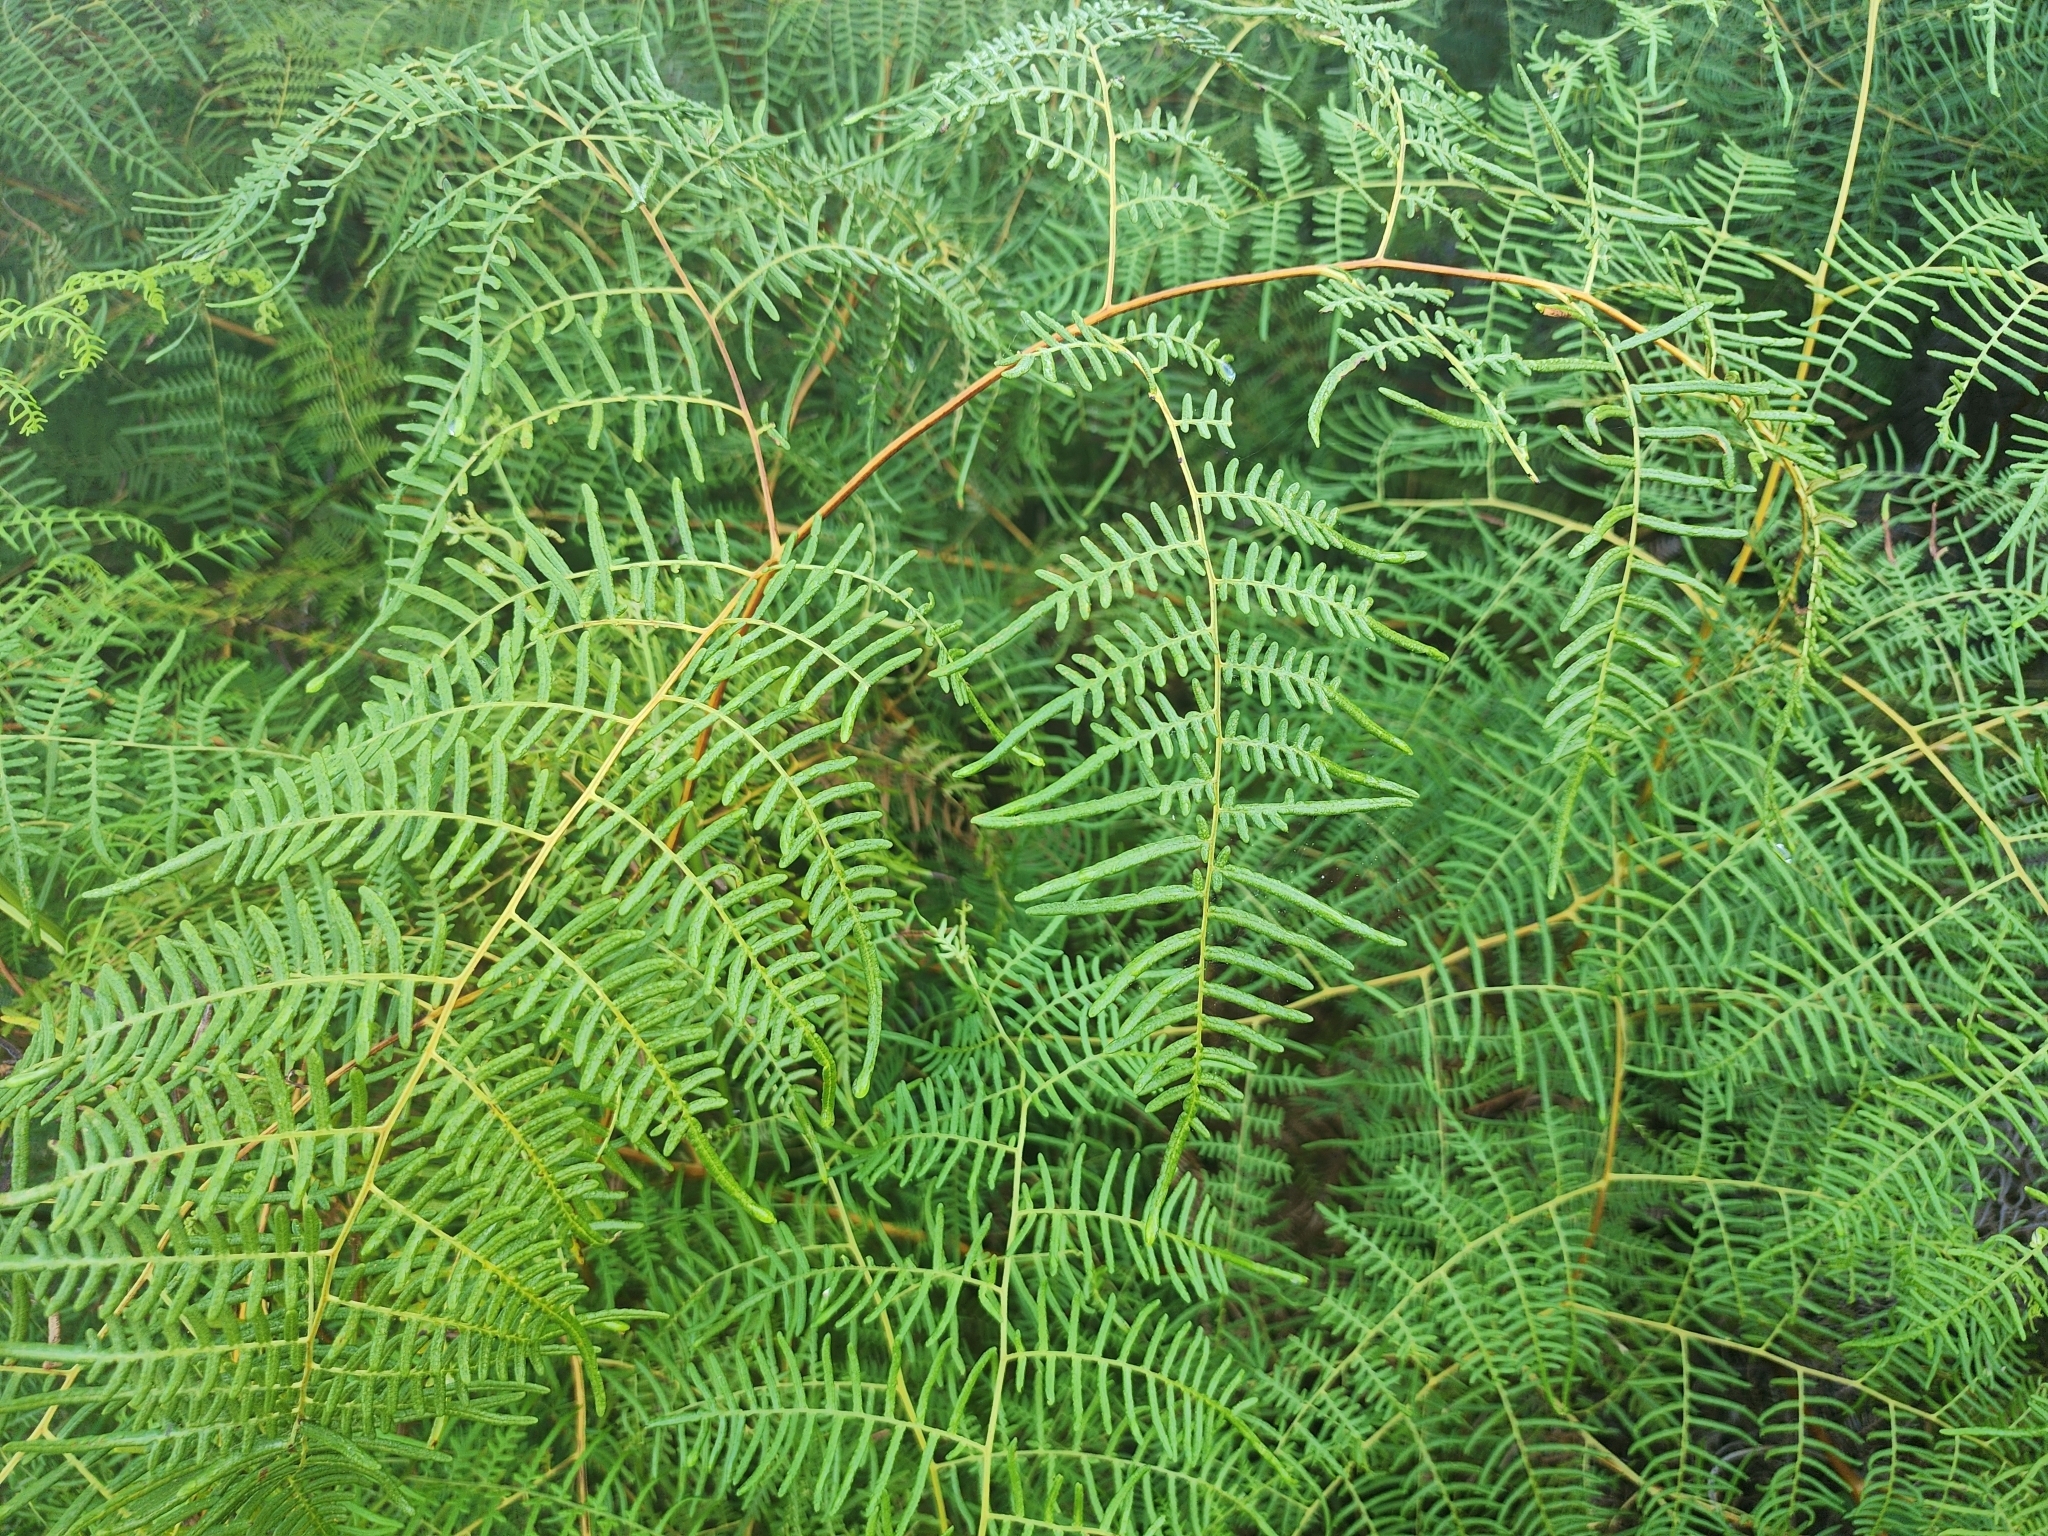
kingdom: Plantae
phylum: Tracheophyta
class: Polypodiopsida
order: Polypodiales
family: Dennstaedtiaceae
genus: Pteridium
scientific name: Pteridium caudatum
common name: Southern bracken fern
